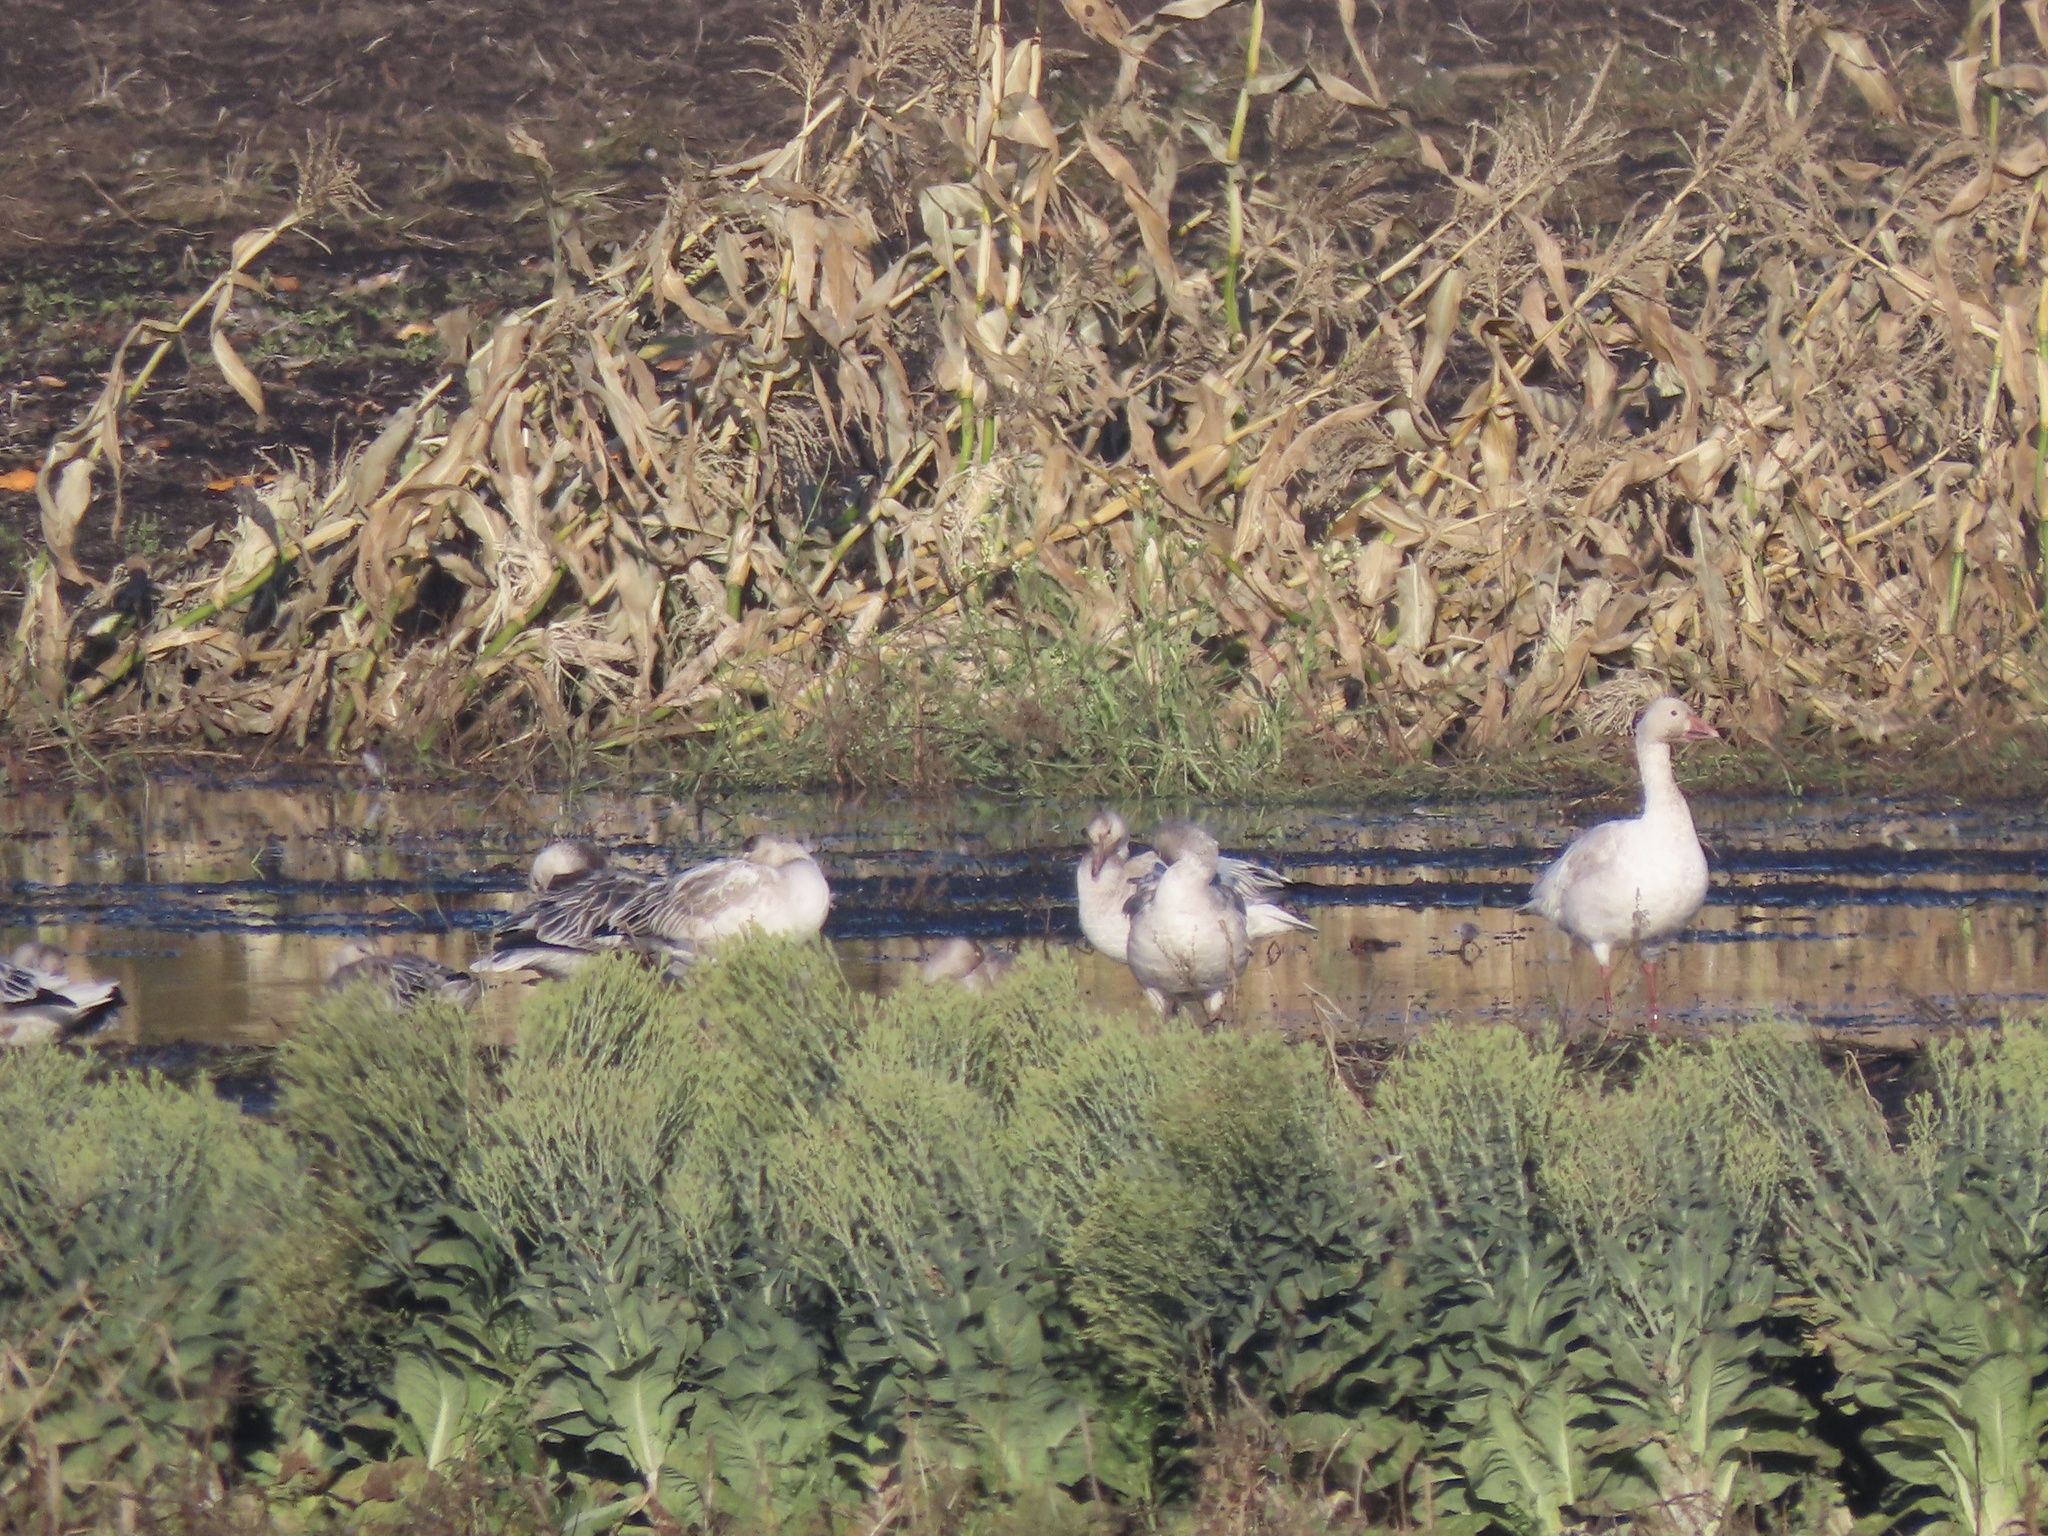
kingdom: Animalia
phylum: Chordata
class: Aves
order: Anseriformes
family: Anatidae
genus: Anser
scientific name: Anser caerulescens
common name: Snow goose
